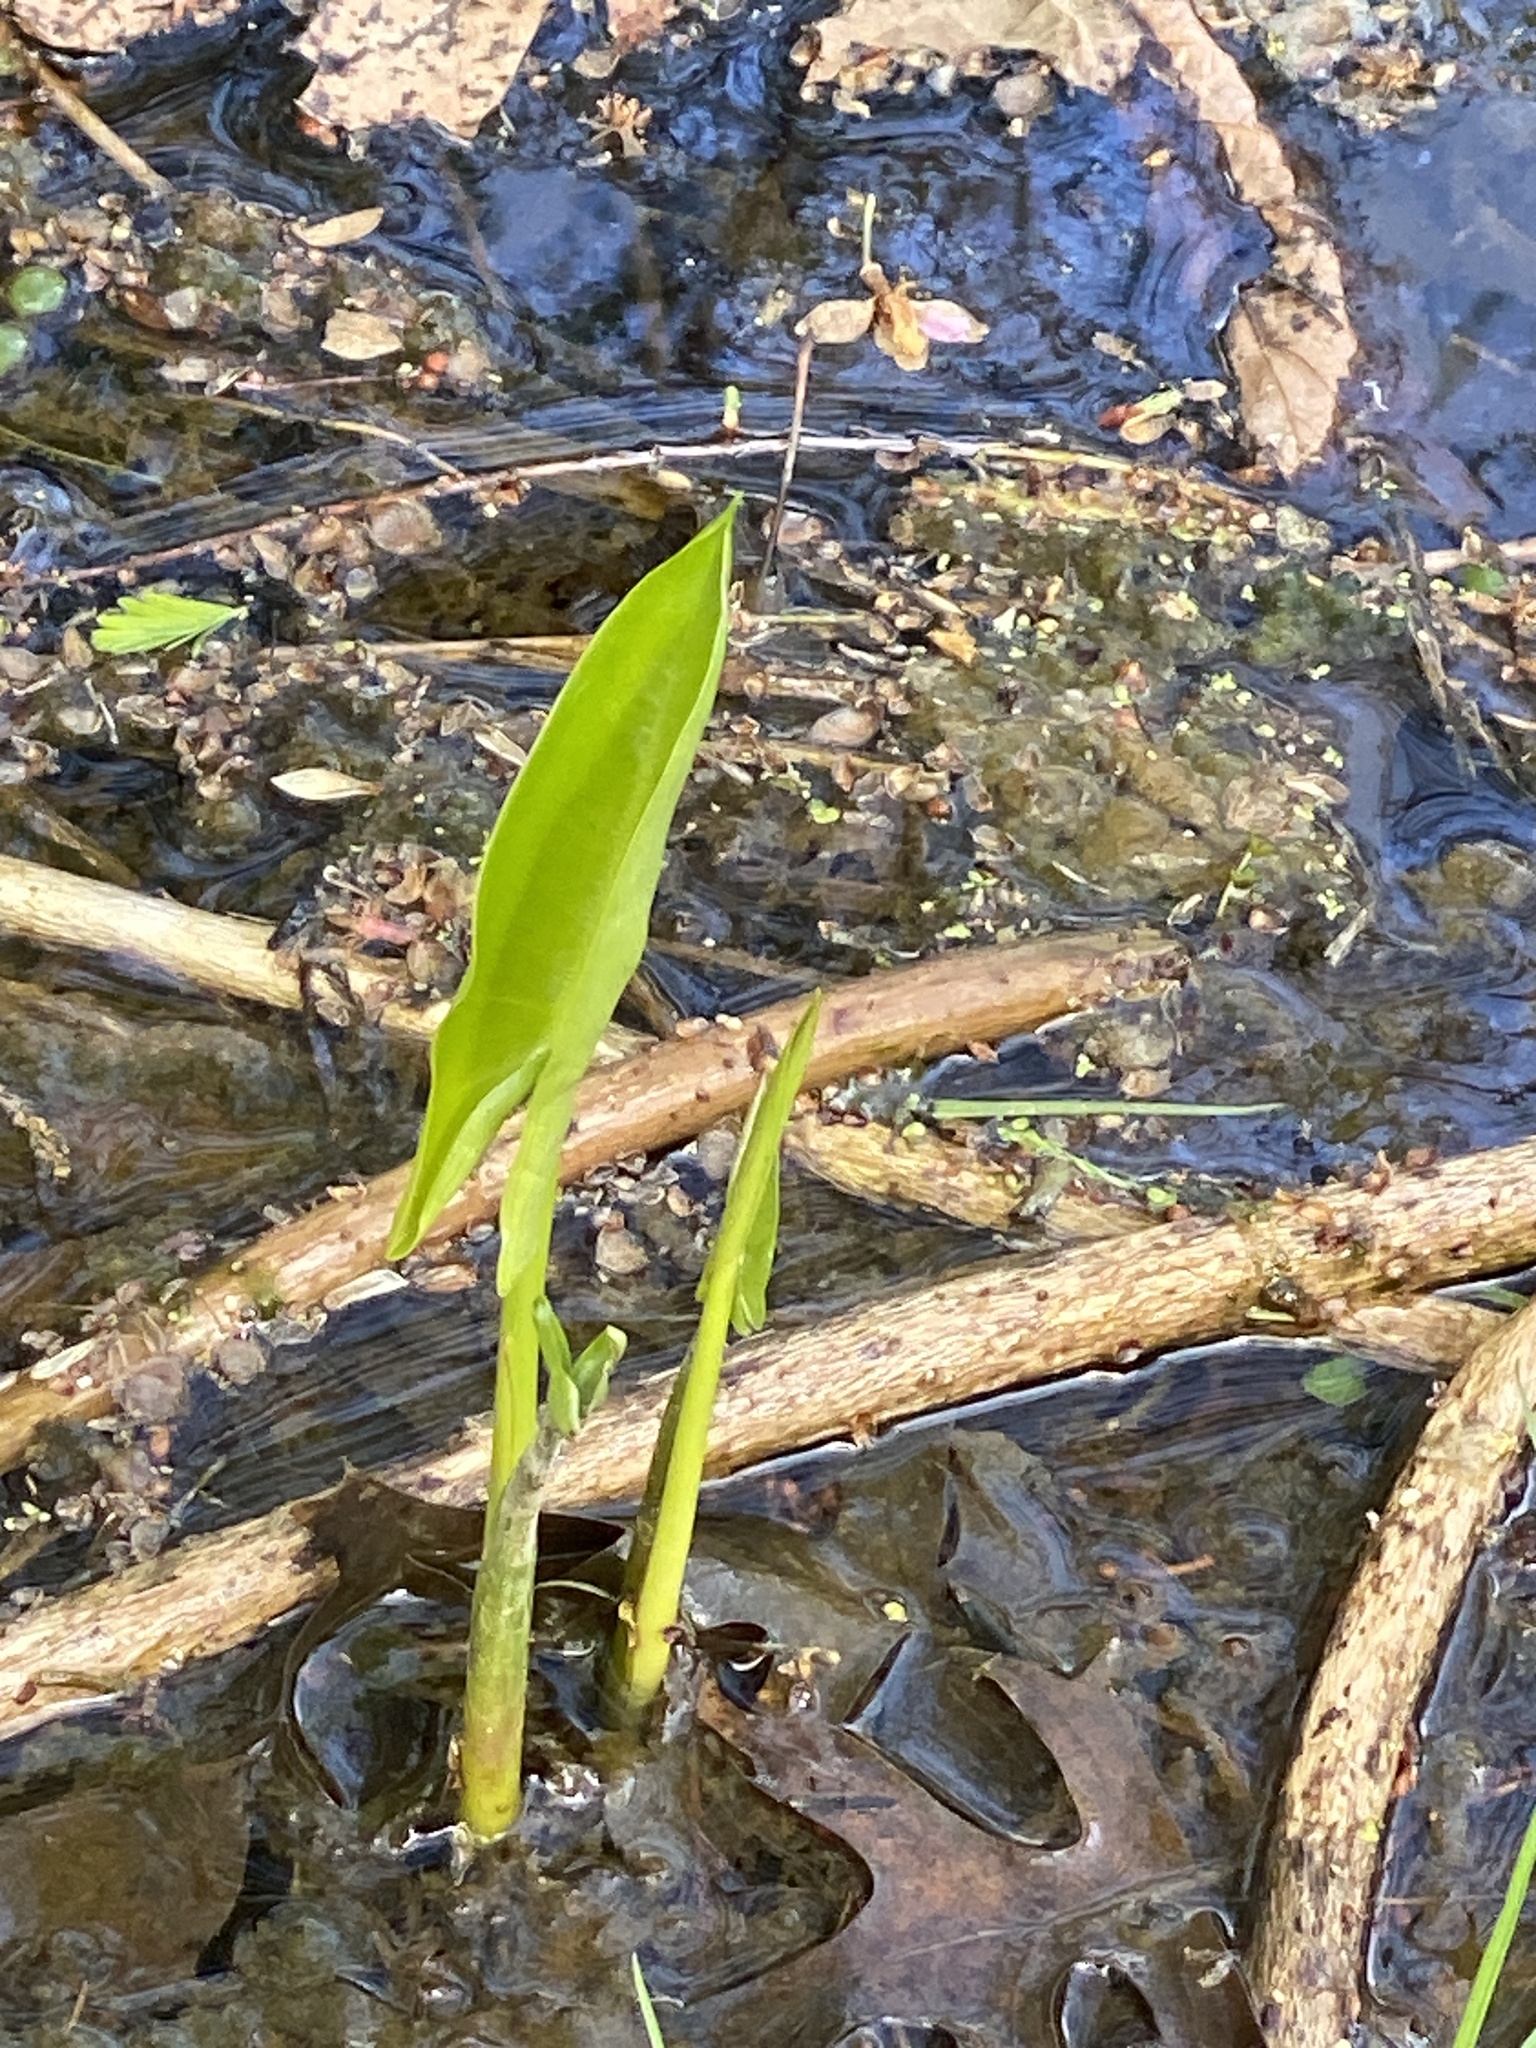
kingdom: Plantae
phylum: Tracheophyta
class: Liliopsida
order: Alismatales
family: Araceae
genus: Peltandra
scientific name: Peltandra virginica
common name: Arrow arum
